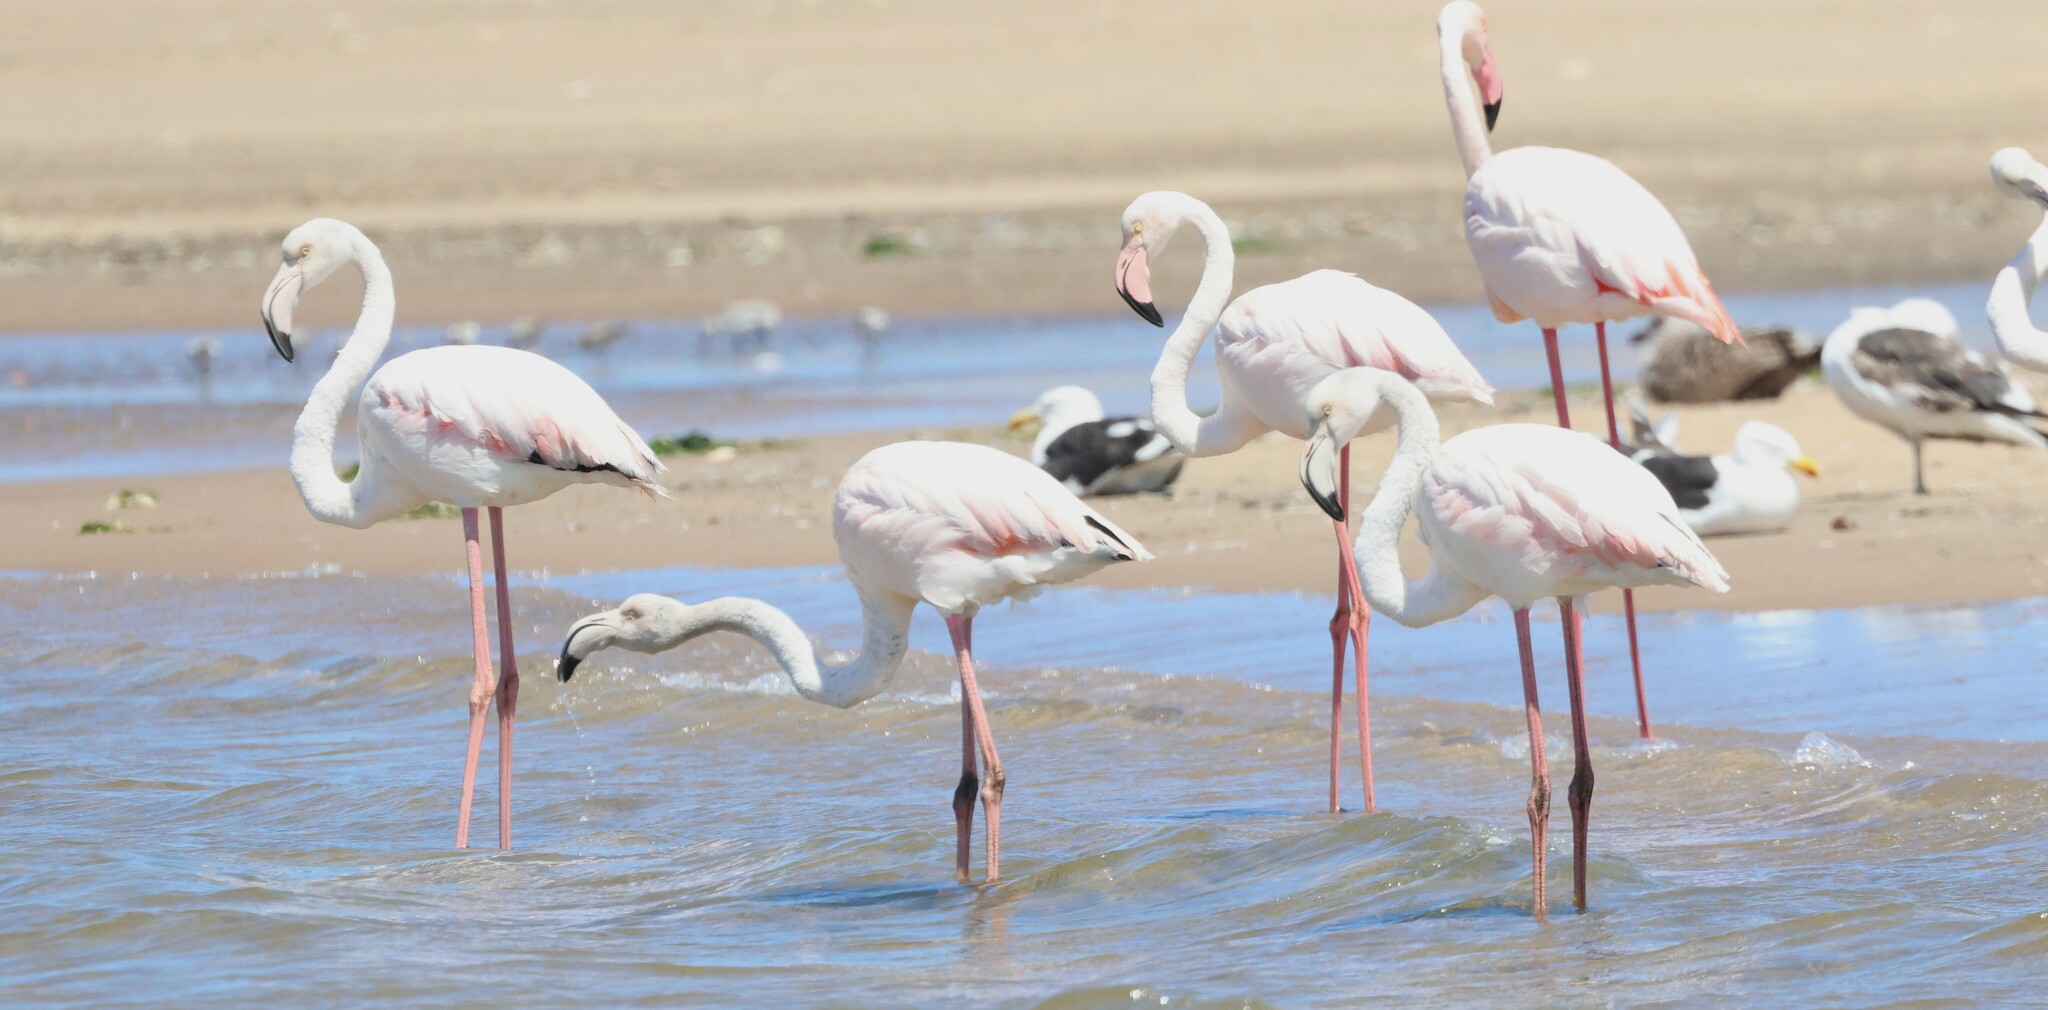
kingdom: Animalia
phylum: Chordata
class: Aves
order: Phoenicopteriformes
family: Phoenicopteridae
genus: Phoenicopterus
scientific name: Phoenicopterus roseus
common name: Greater flamingo
